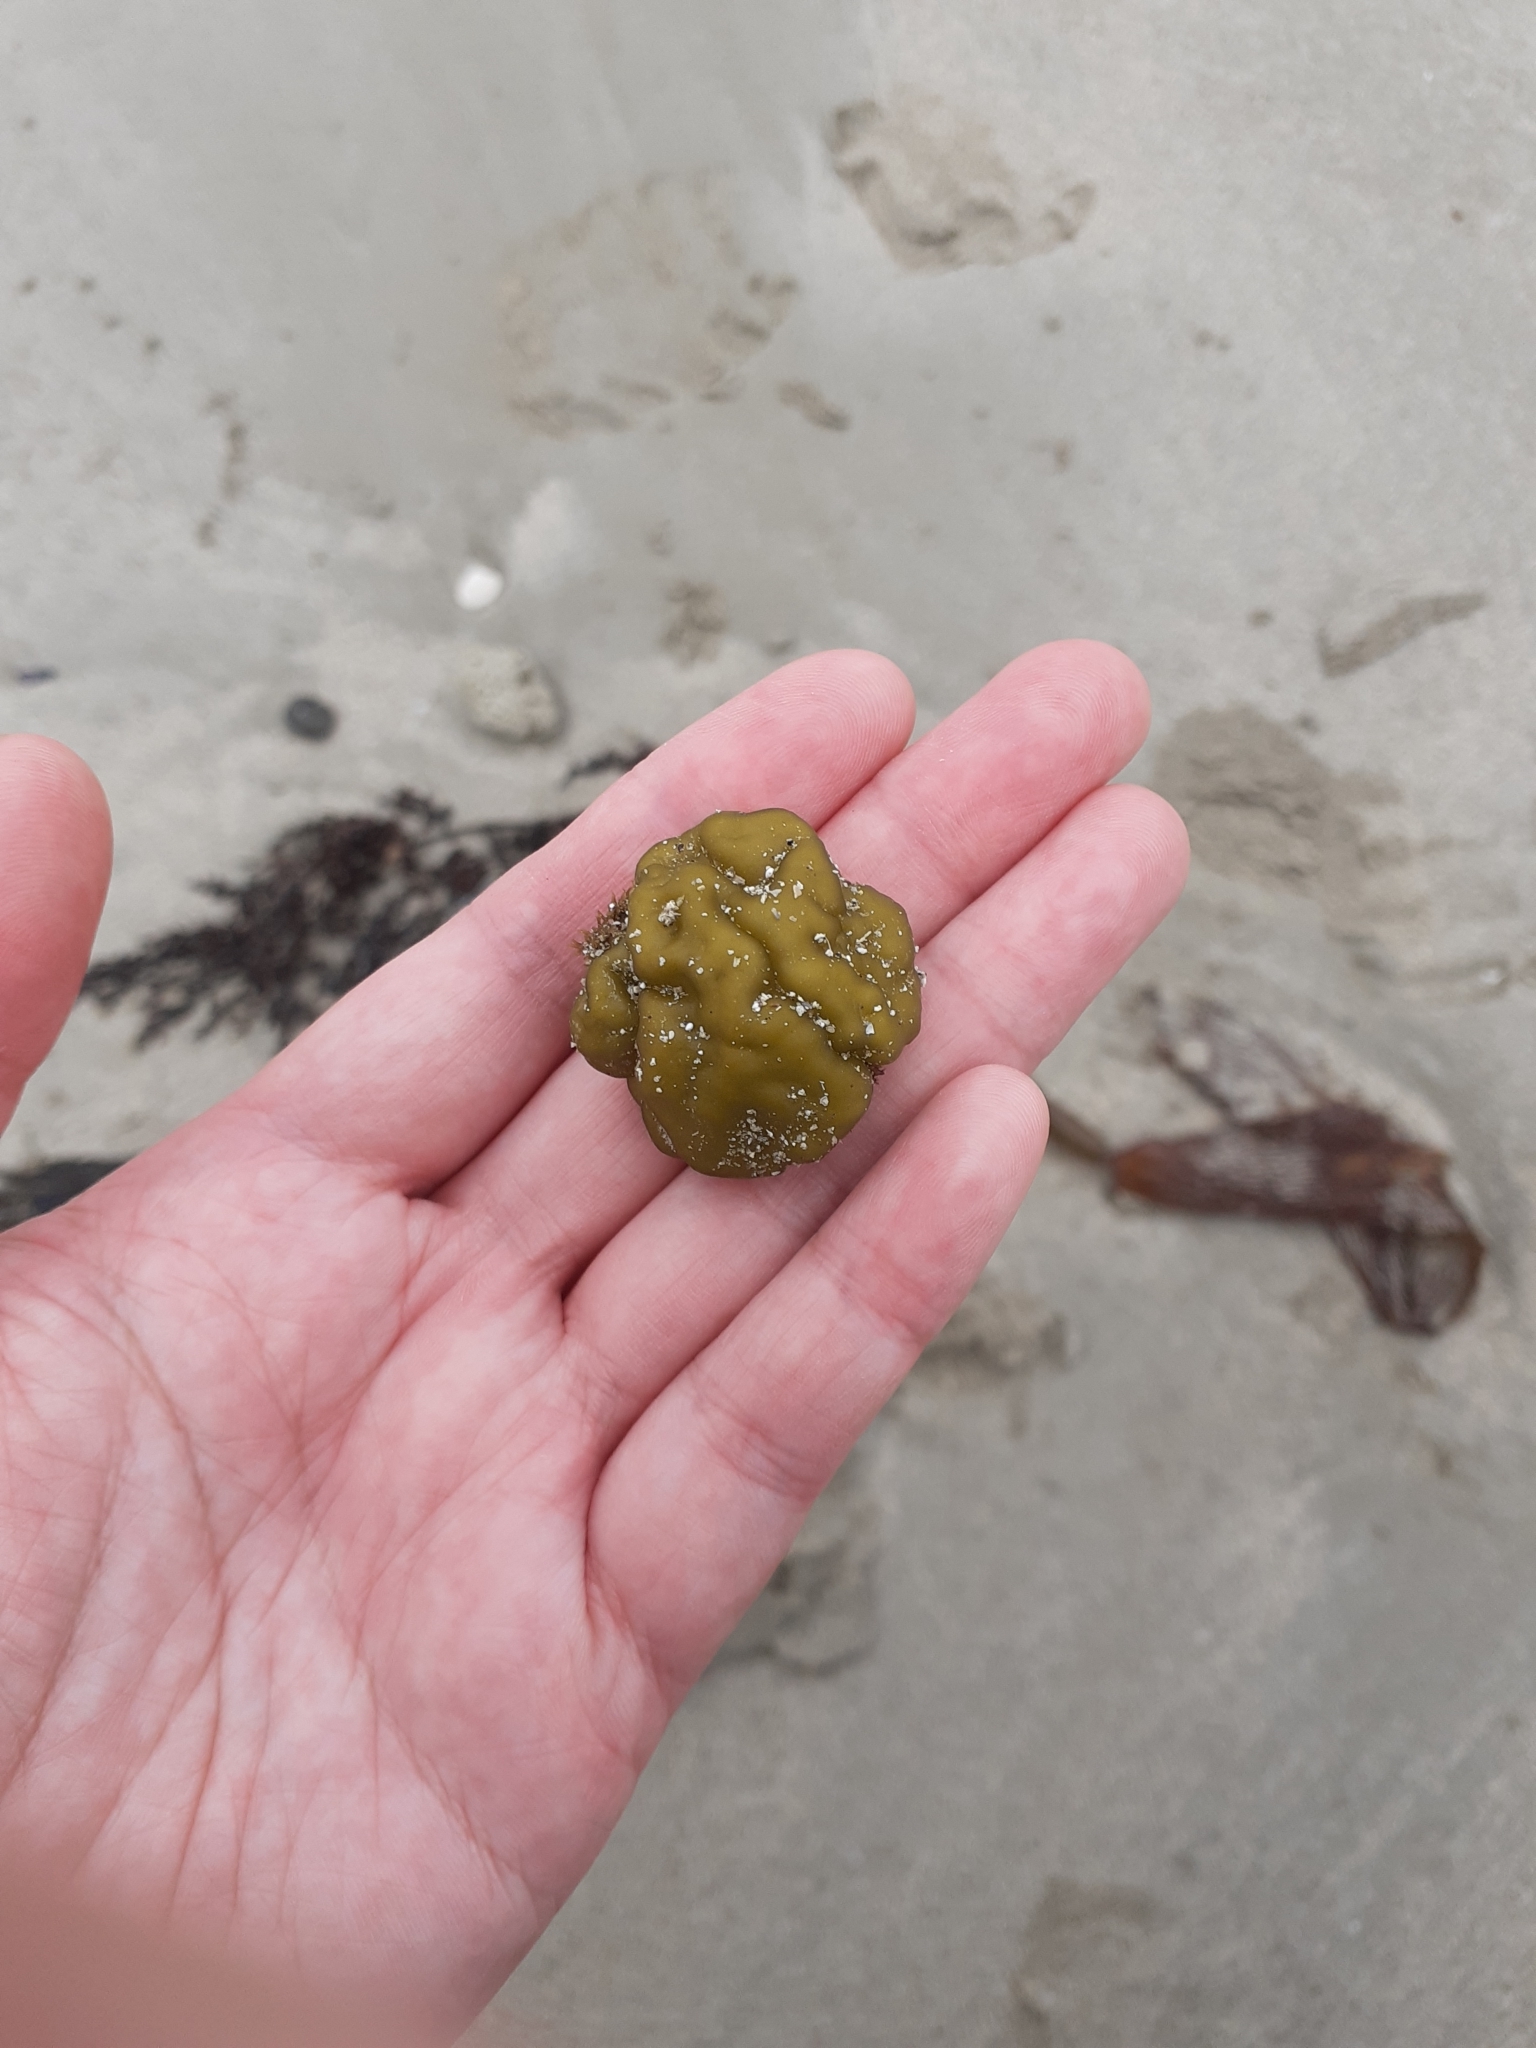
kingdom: Chromista
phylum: Ochrophyta
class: Phaeophyceae
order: Ectocarpales
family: Chordariaceae
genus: Leathesia
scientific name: Leathesia marina
